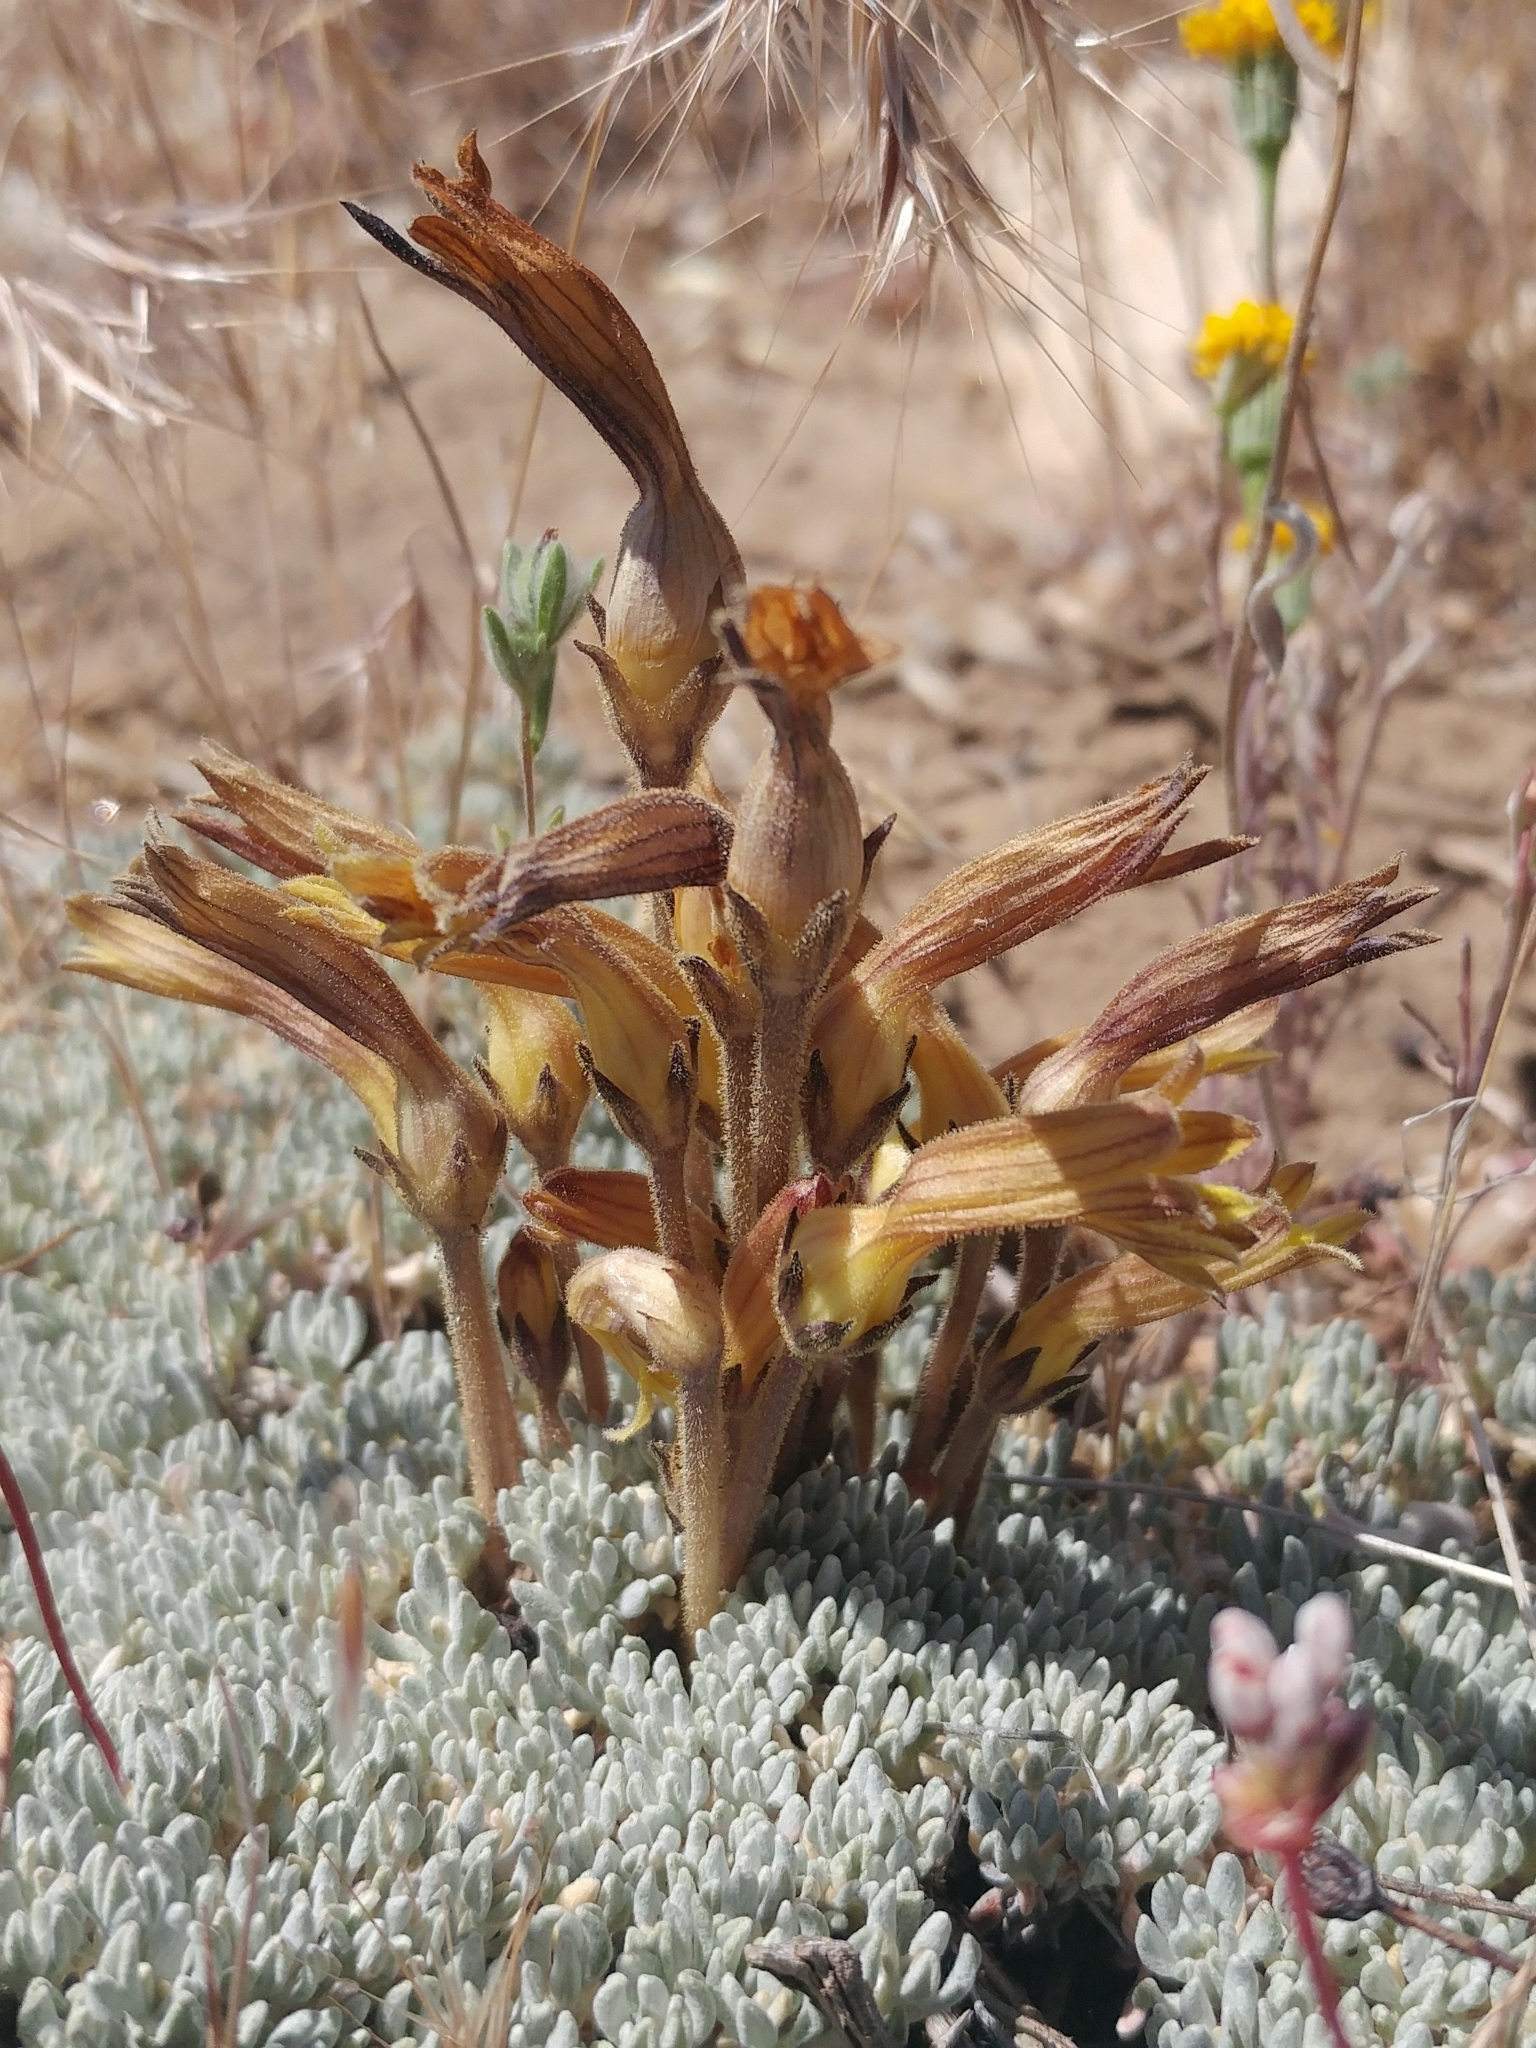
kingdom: Plantae
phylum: Tracheophyta
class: Magnoliopsida
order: Lamiales
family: Orobanchaceae
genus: Aphyllon
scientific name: Aphyllon franciscanum
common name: San francisco broomrape
